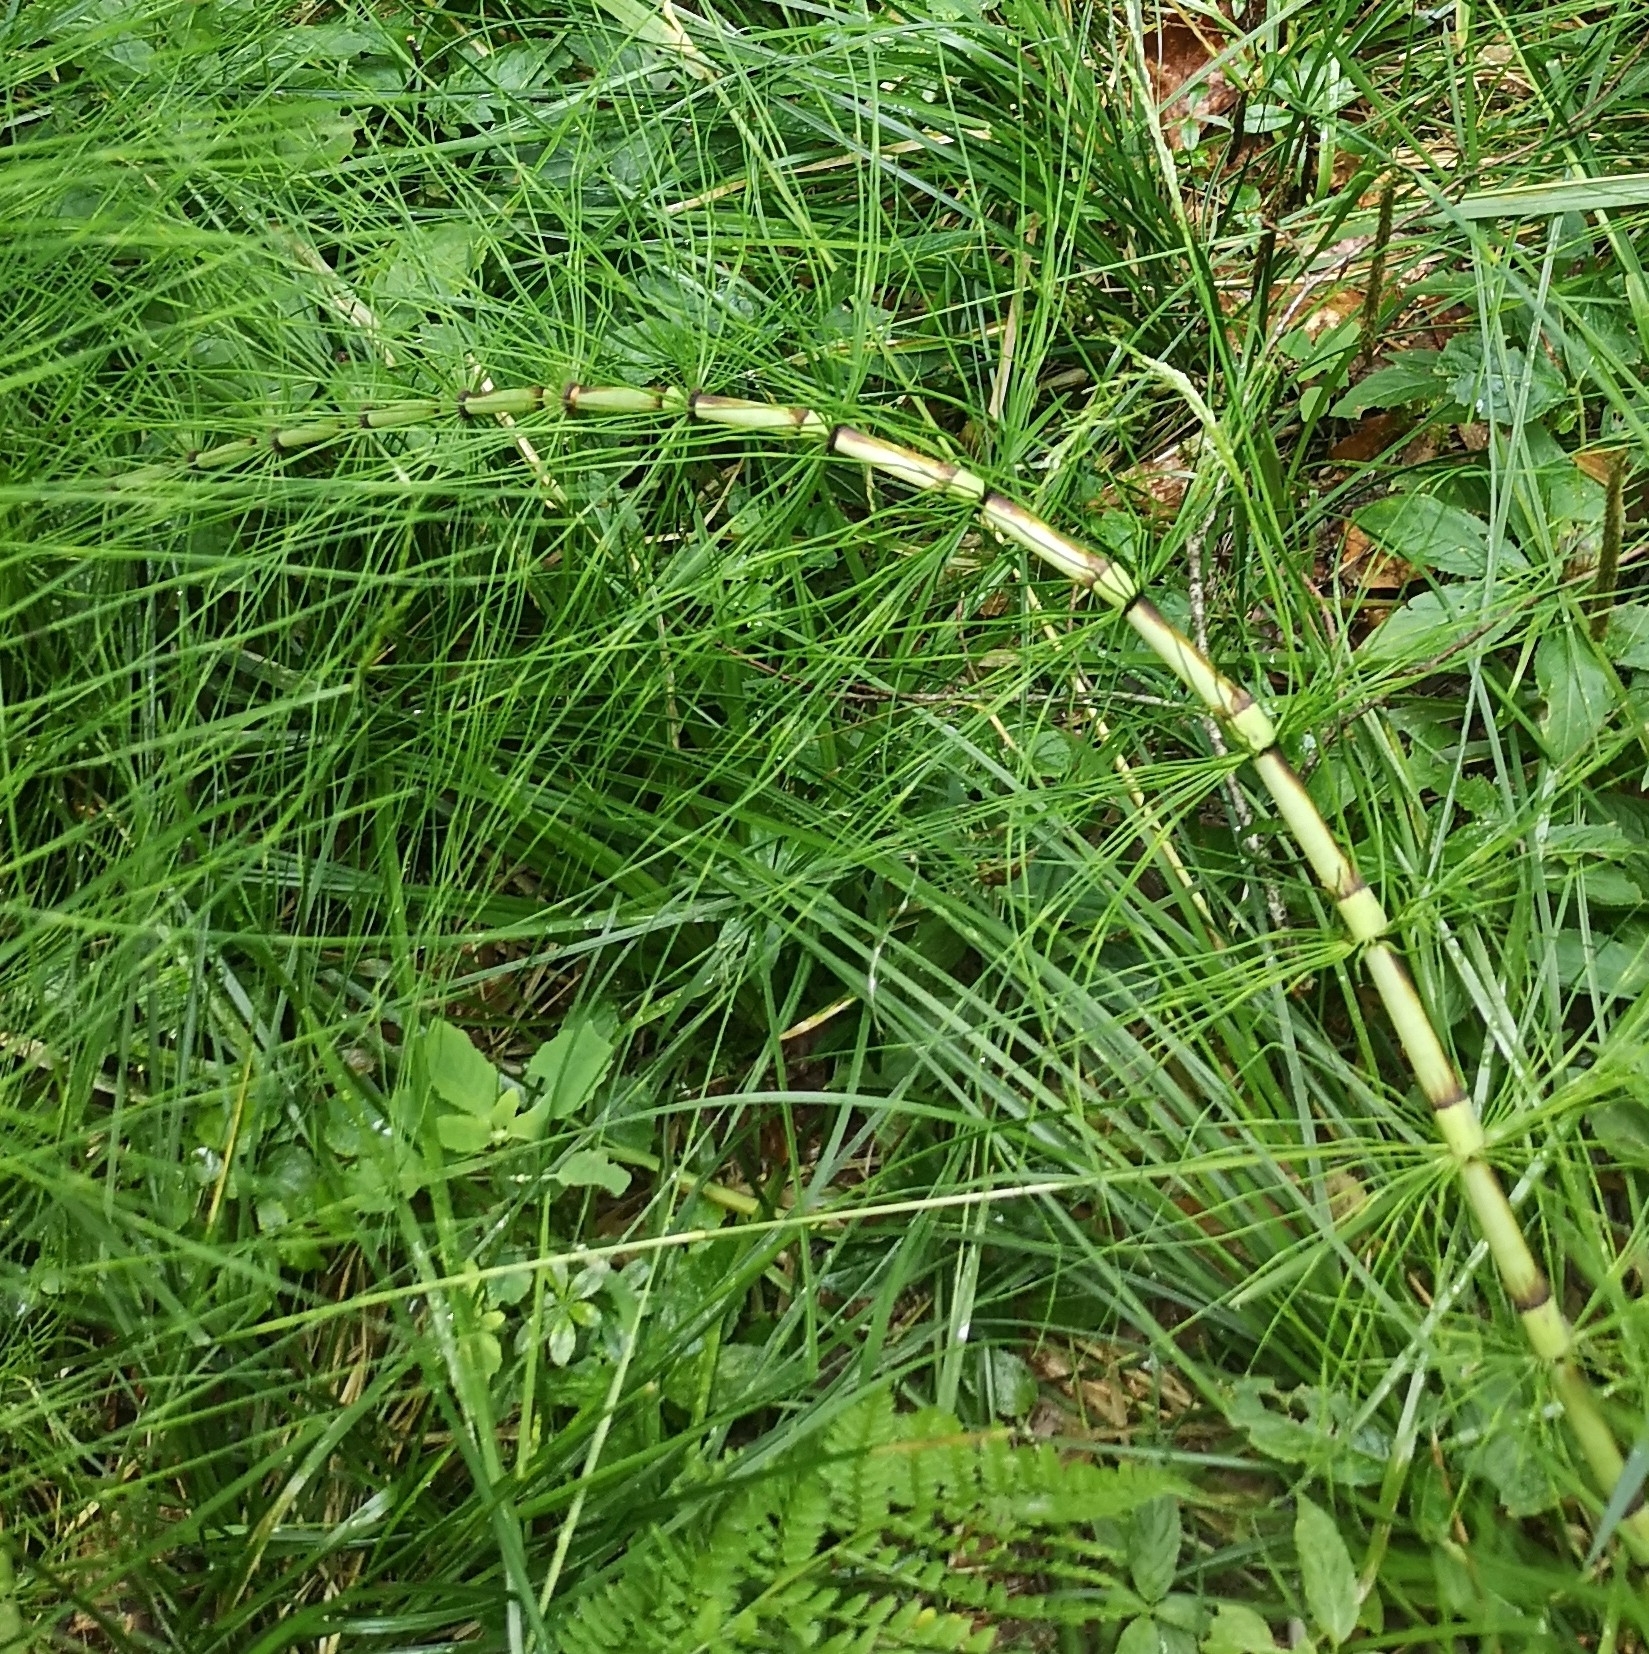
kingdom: Plantae
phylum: Tracheophyta
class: Polypodiopsida
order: Equisetales
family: Equisetaceae
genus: Equisetum
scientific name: Equisetum telmateia
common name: Great horsetail
